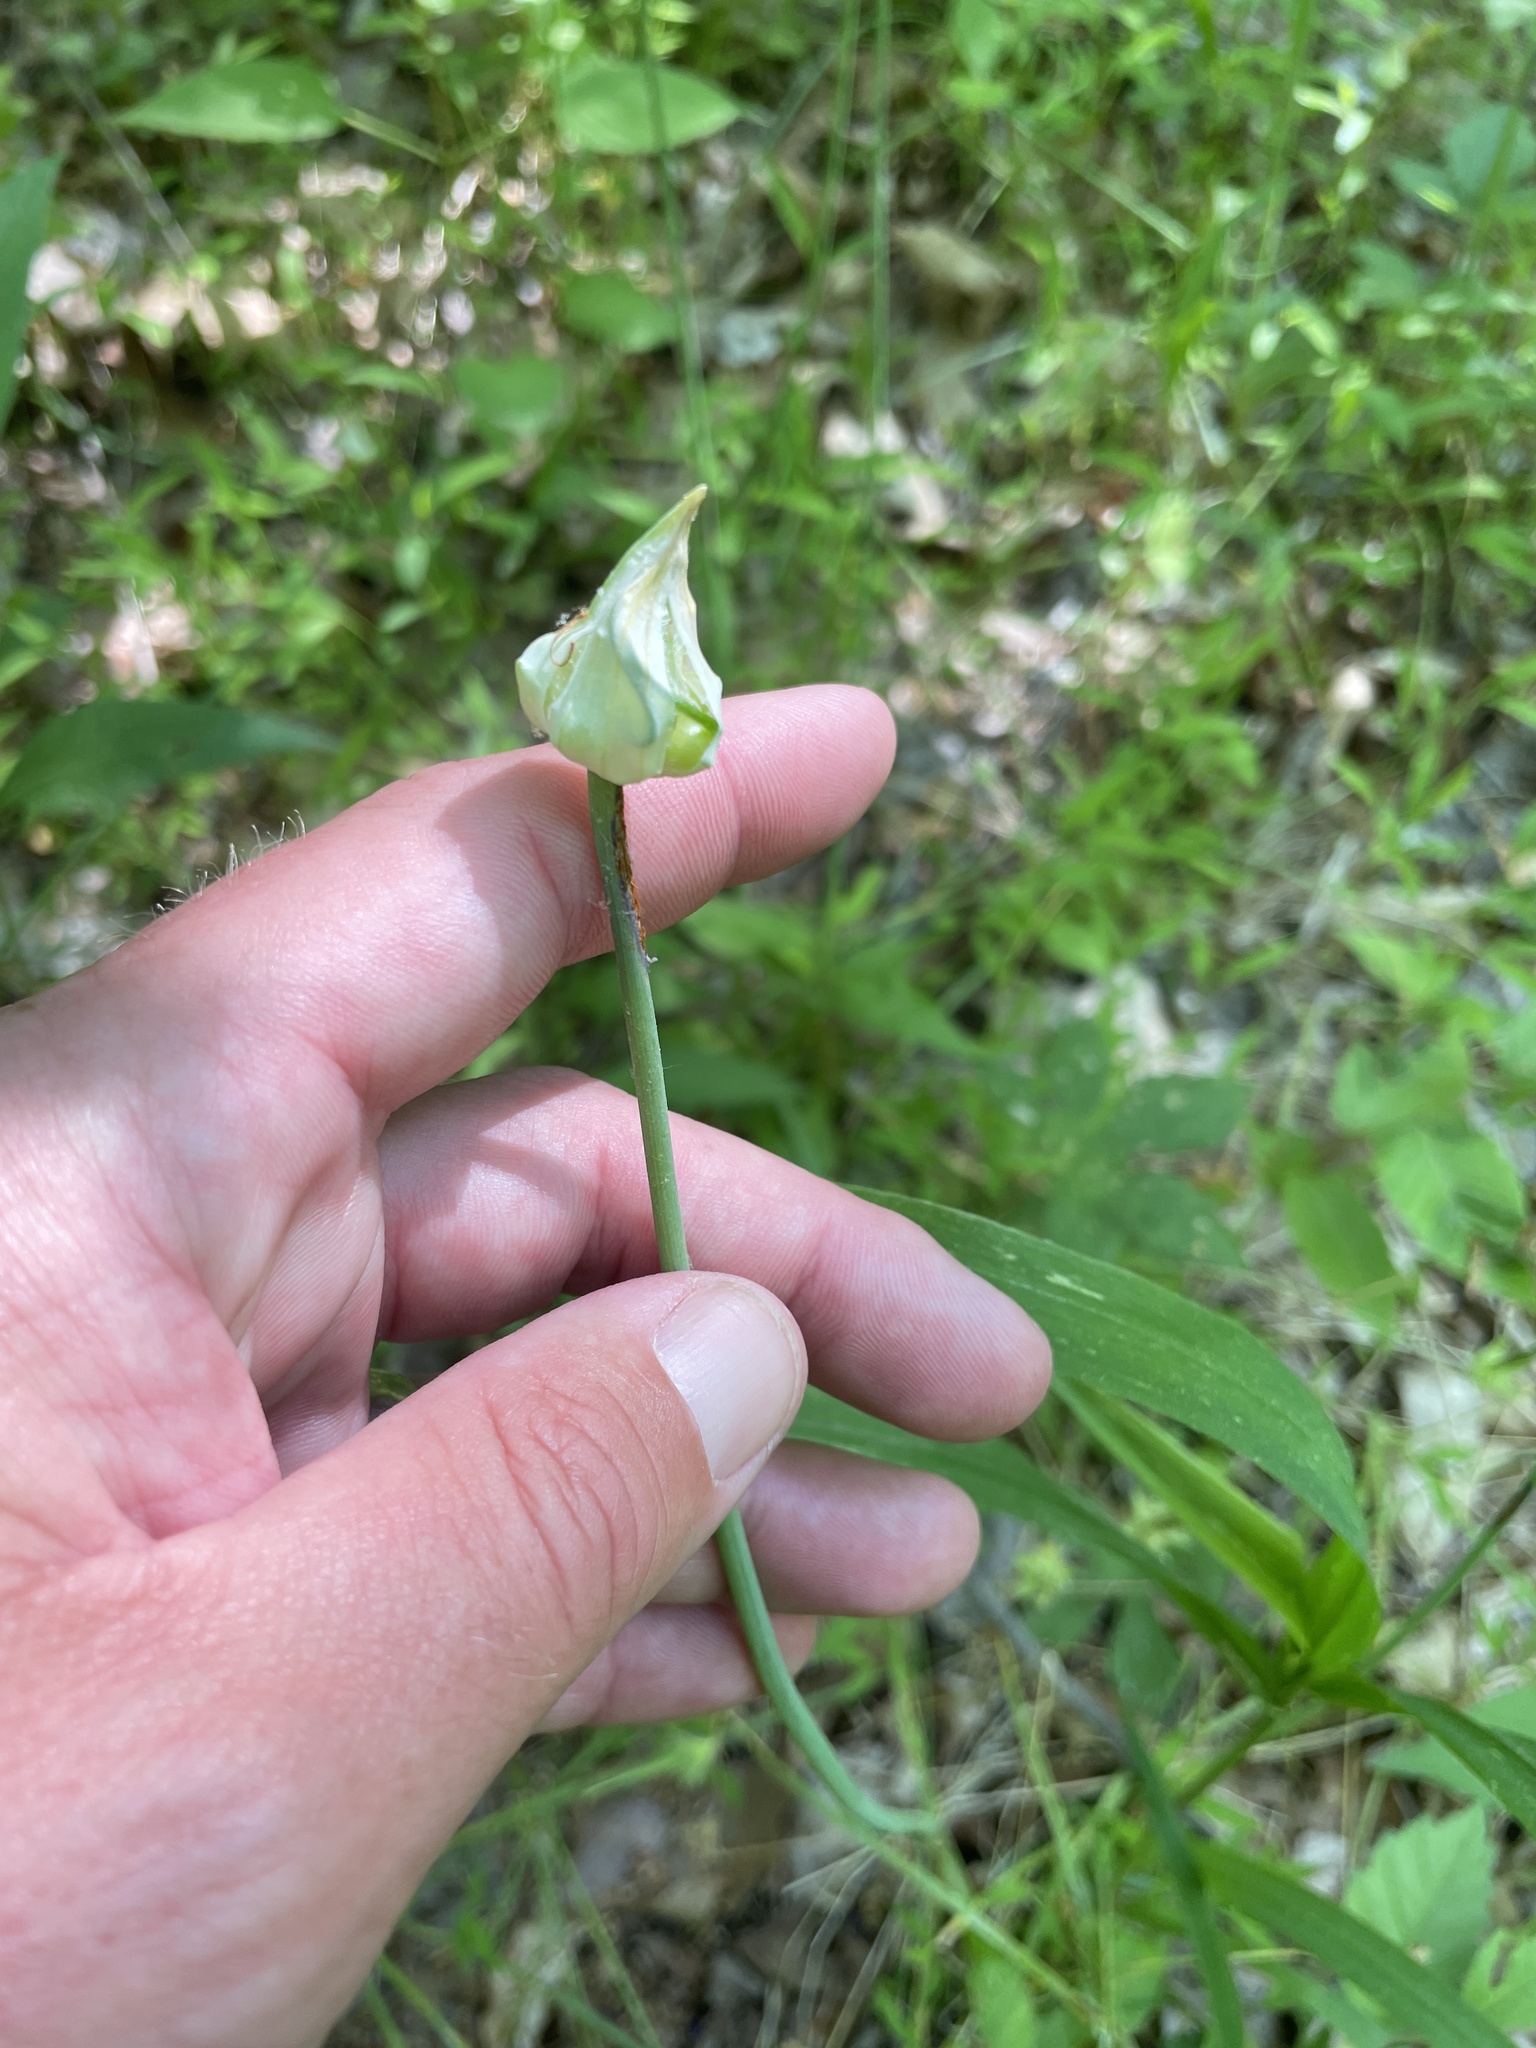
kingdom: Plantae
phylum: Tracheophyta
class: Liliopsida
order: Asparagales
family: Amaryllidaceae
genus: Allium
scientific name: Allium vineale
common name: Crow garlic
